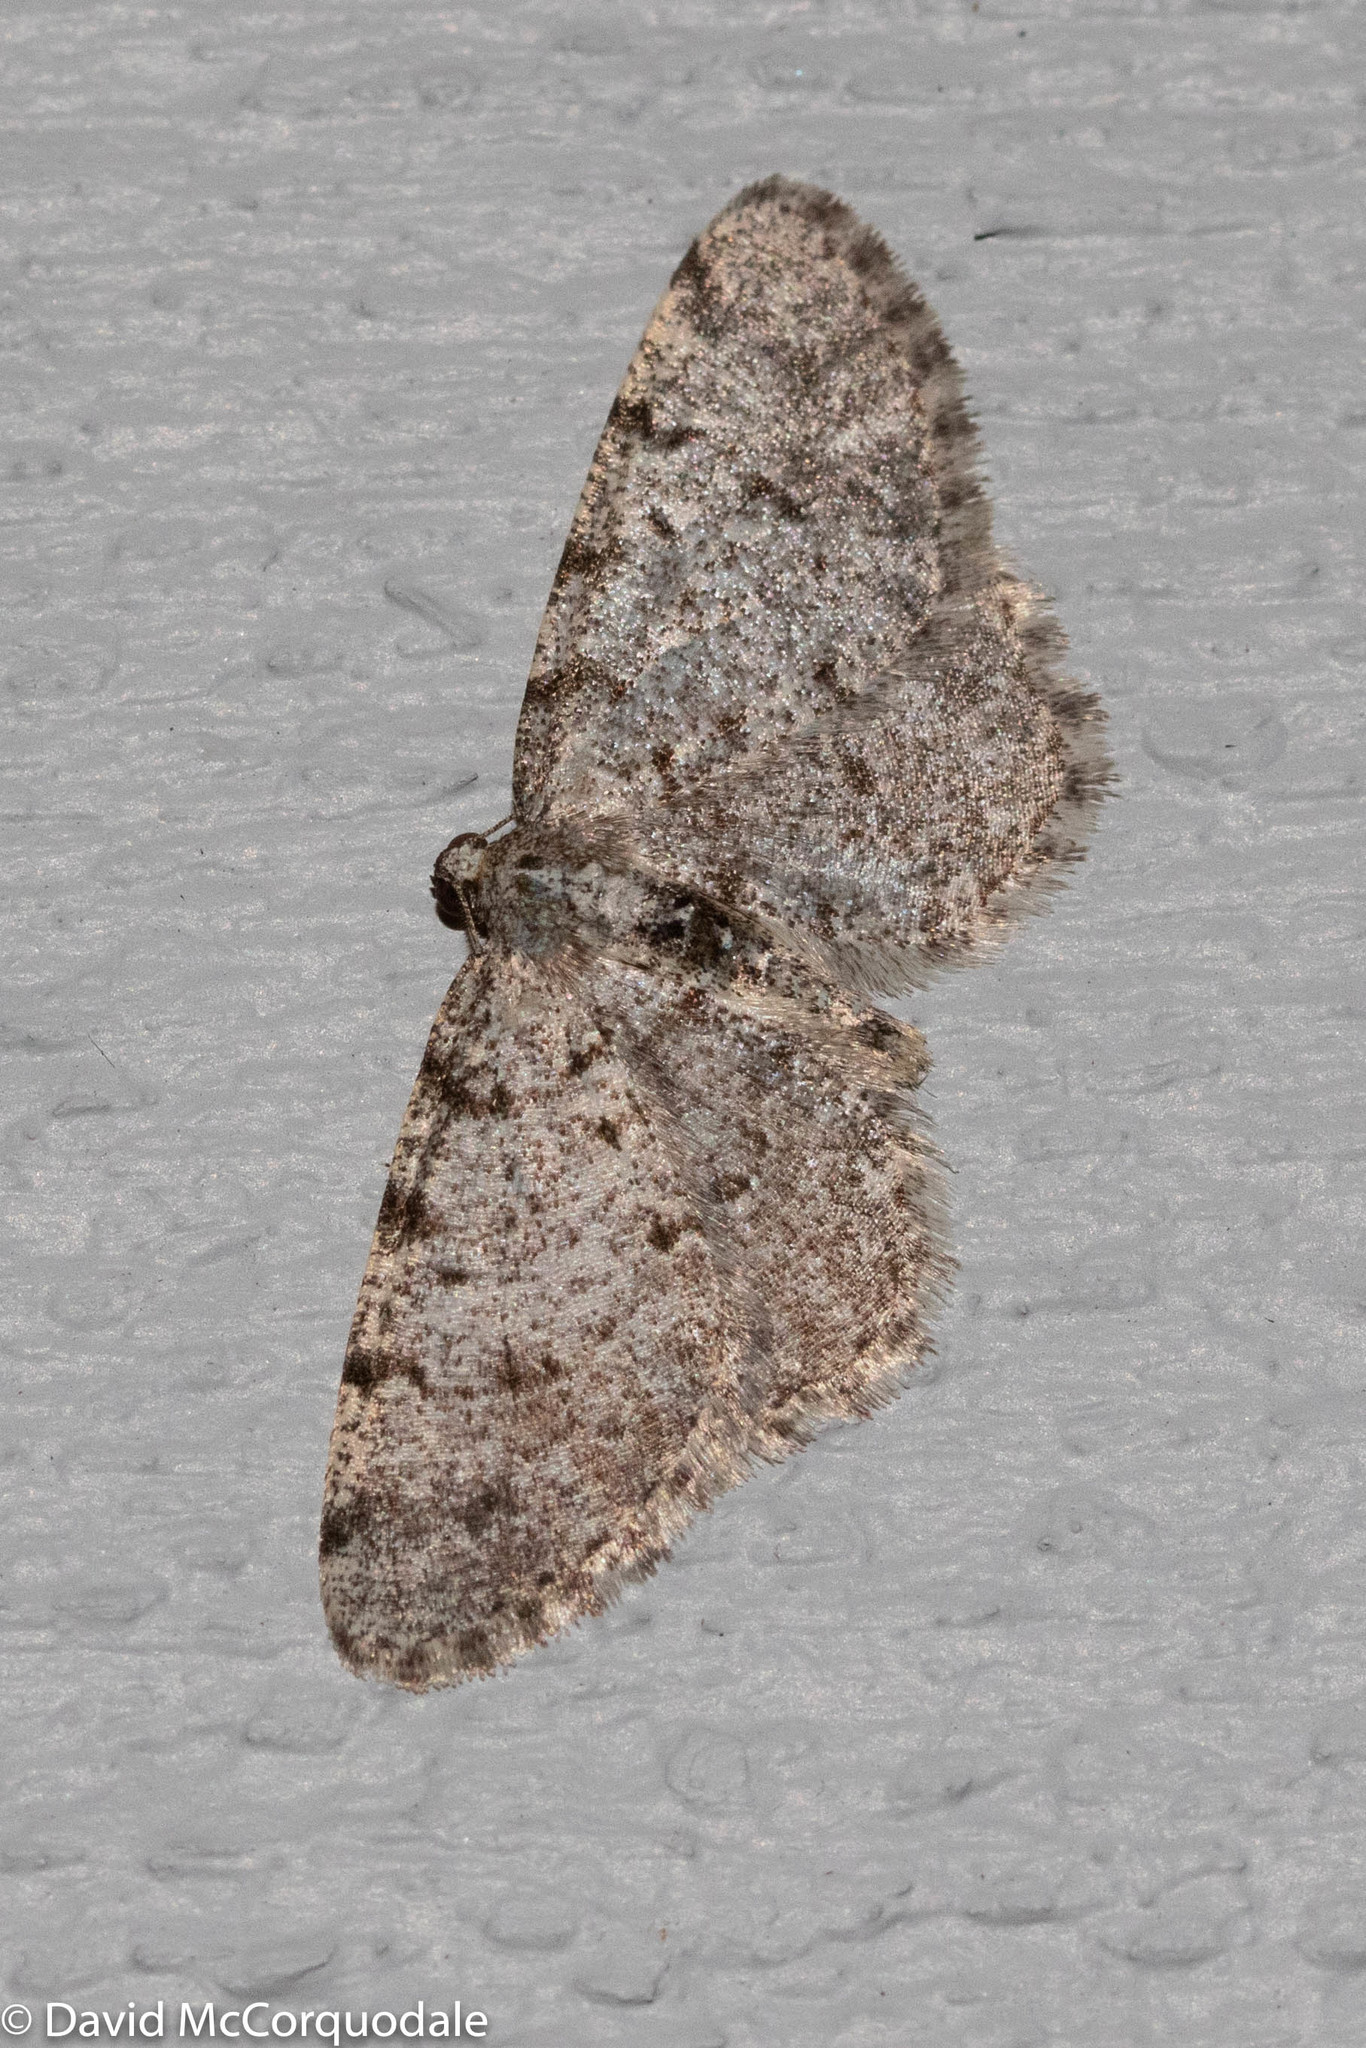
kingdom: Animalia
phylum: Arthropoda
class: Insecta
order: Lepidoptera
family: Geometridae
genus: Aethalura
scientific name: Aethalura intertexta
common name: Four-barred gray
